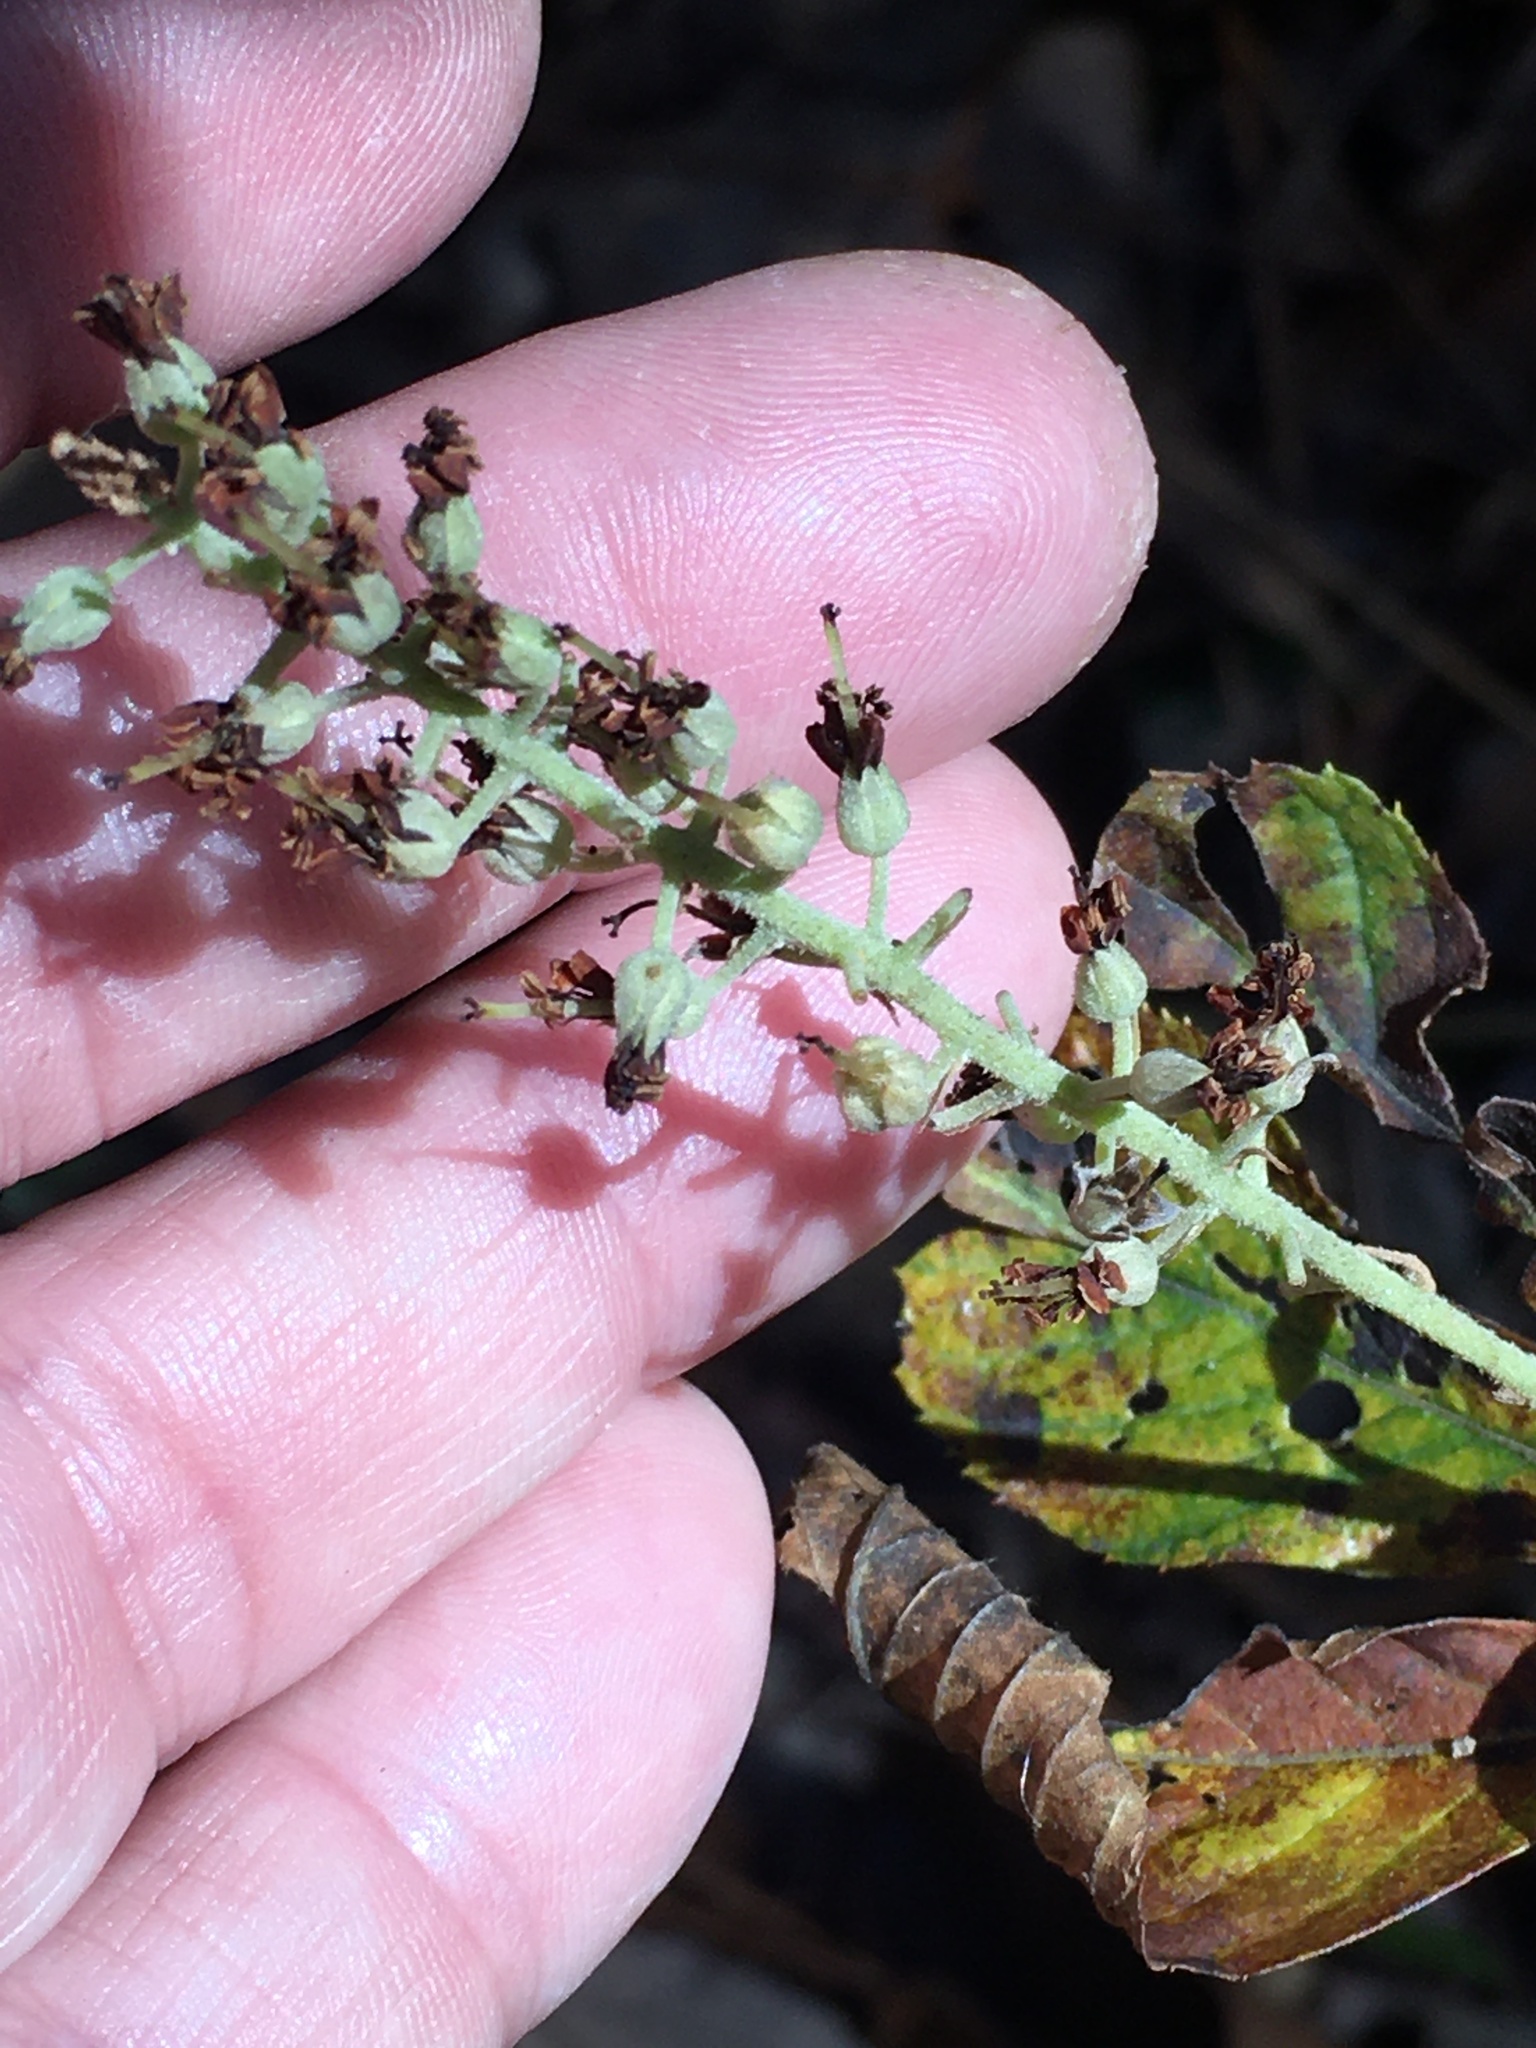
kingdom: Plantae
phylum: Tracheophyta
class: Magnoliopsida
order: Ericales
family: Clethraceae
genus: Clethra
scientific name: Clethra alnifolia
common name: Sweet pepperbush
